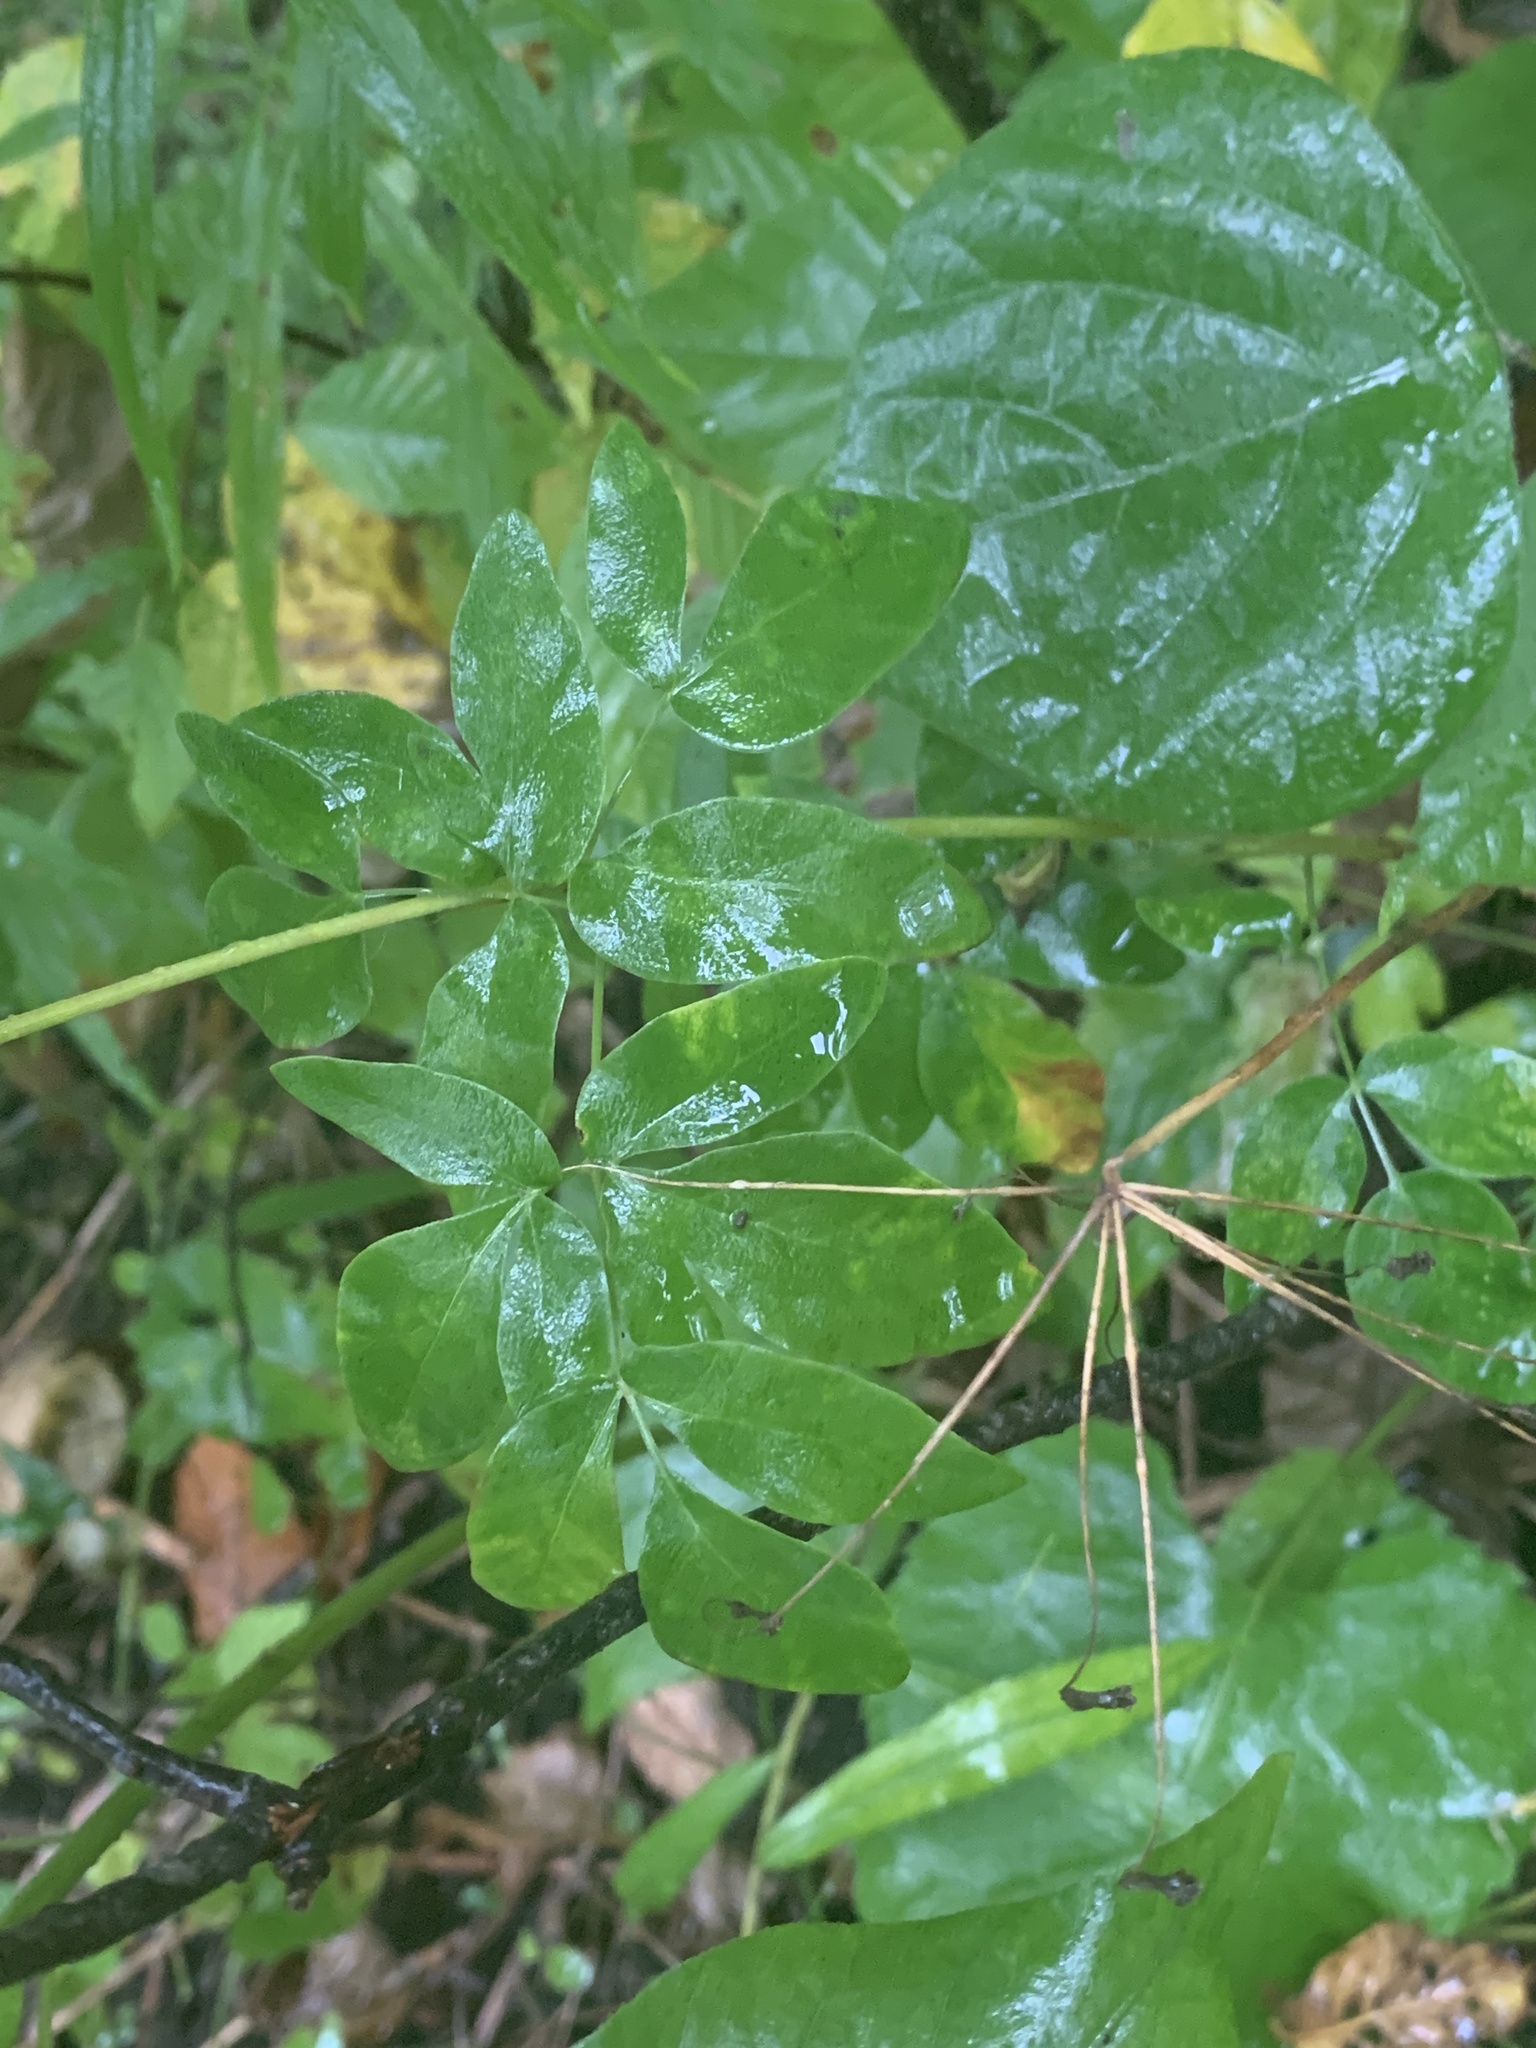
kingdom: Plantae
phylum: Tracheophyta
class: Magnoliopsida
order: Apiales
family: Apiaceae
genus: Taenidia
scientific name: Taenidia integerrima
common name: Golden alexander
